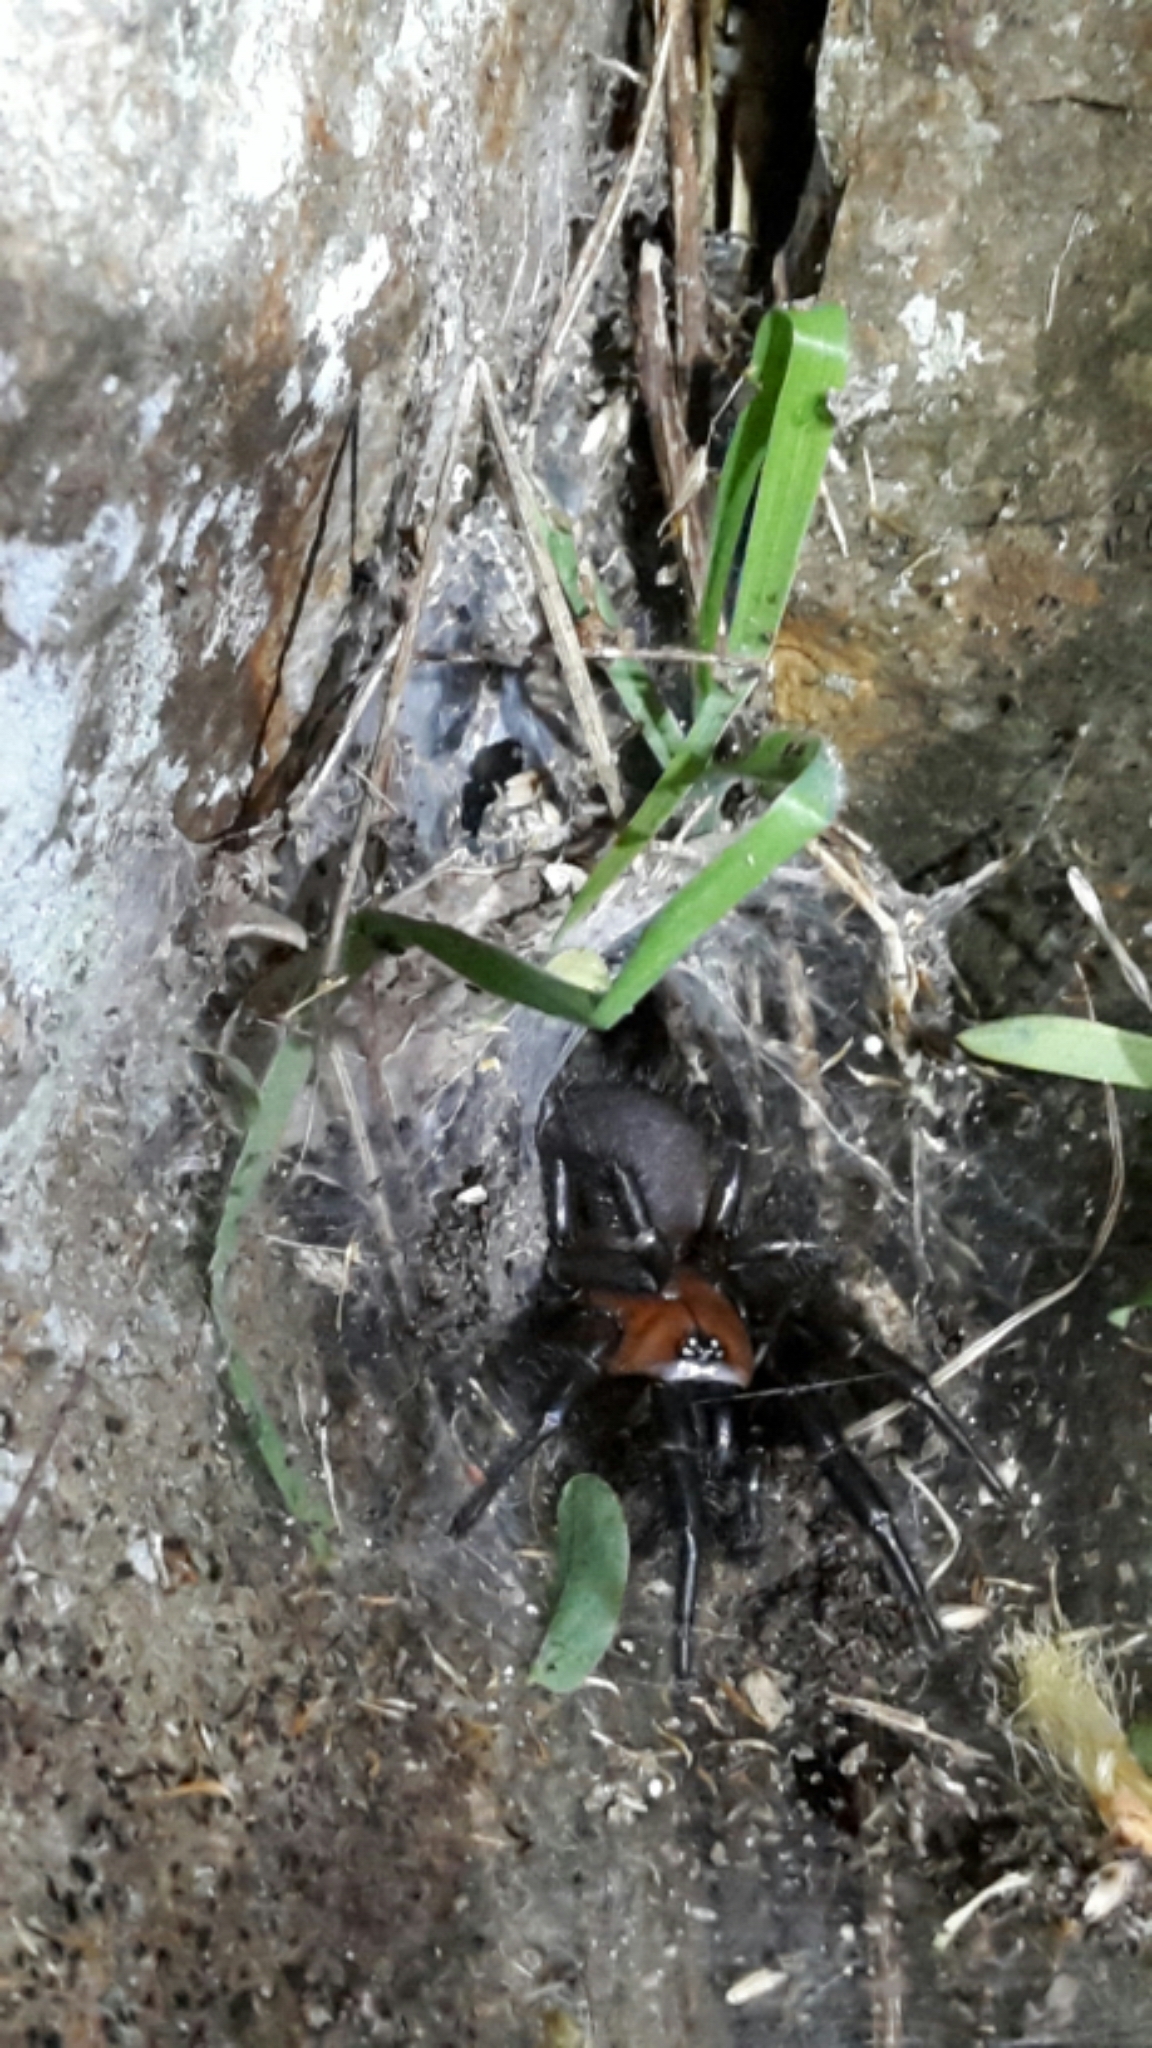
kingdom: Animalia
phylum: Arthropoda
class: Arachnida
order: Araneae
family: Porrhothelidae
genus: Porrhothele
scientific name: Porrhothele antipodiana
